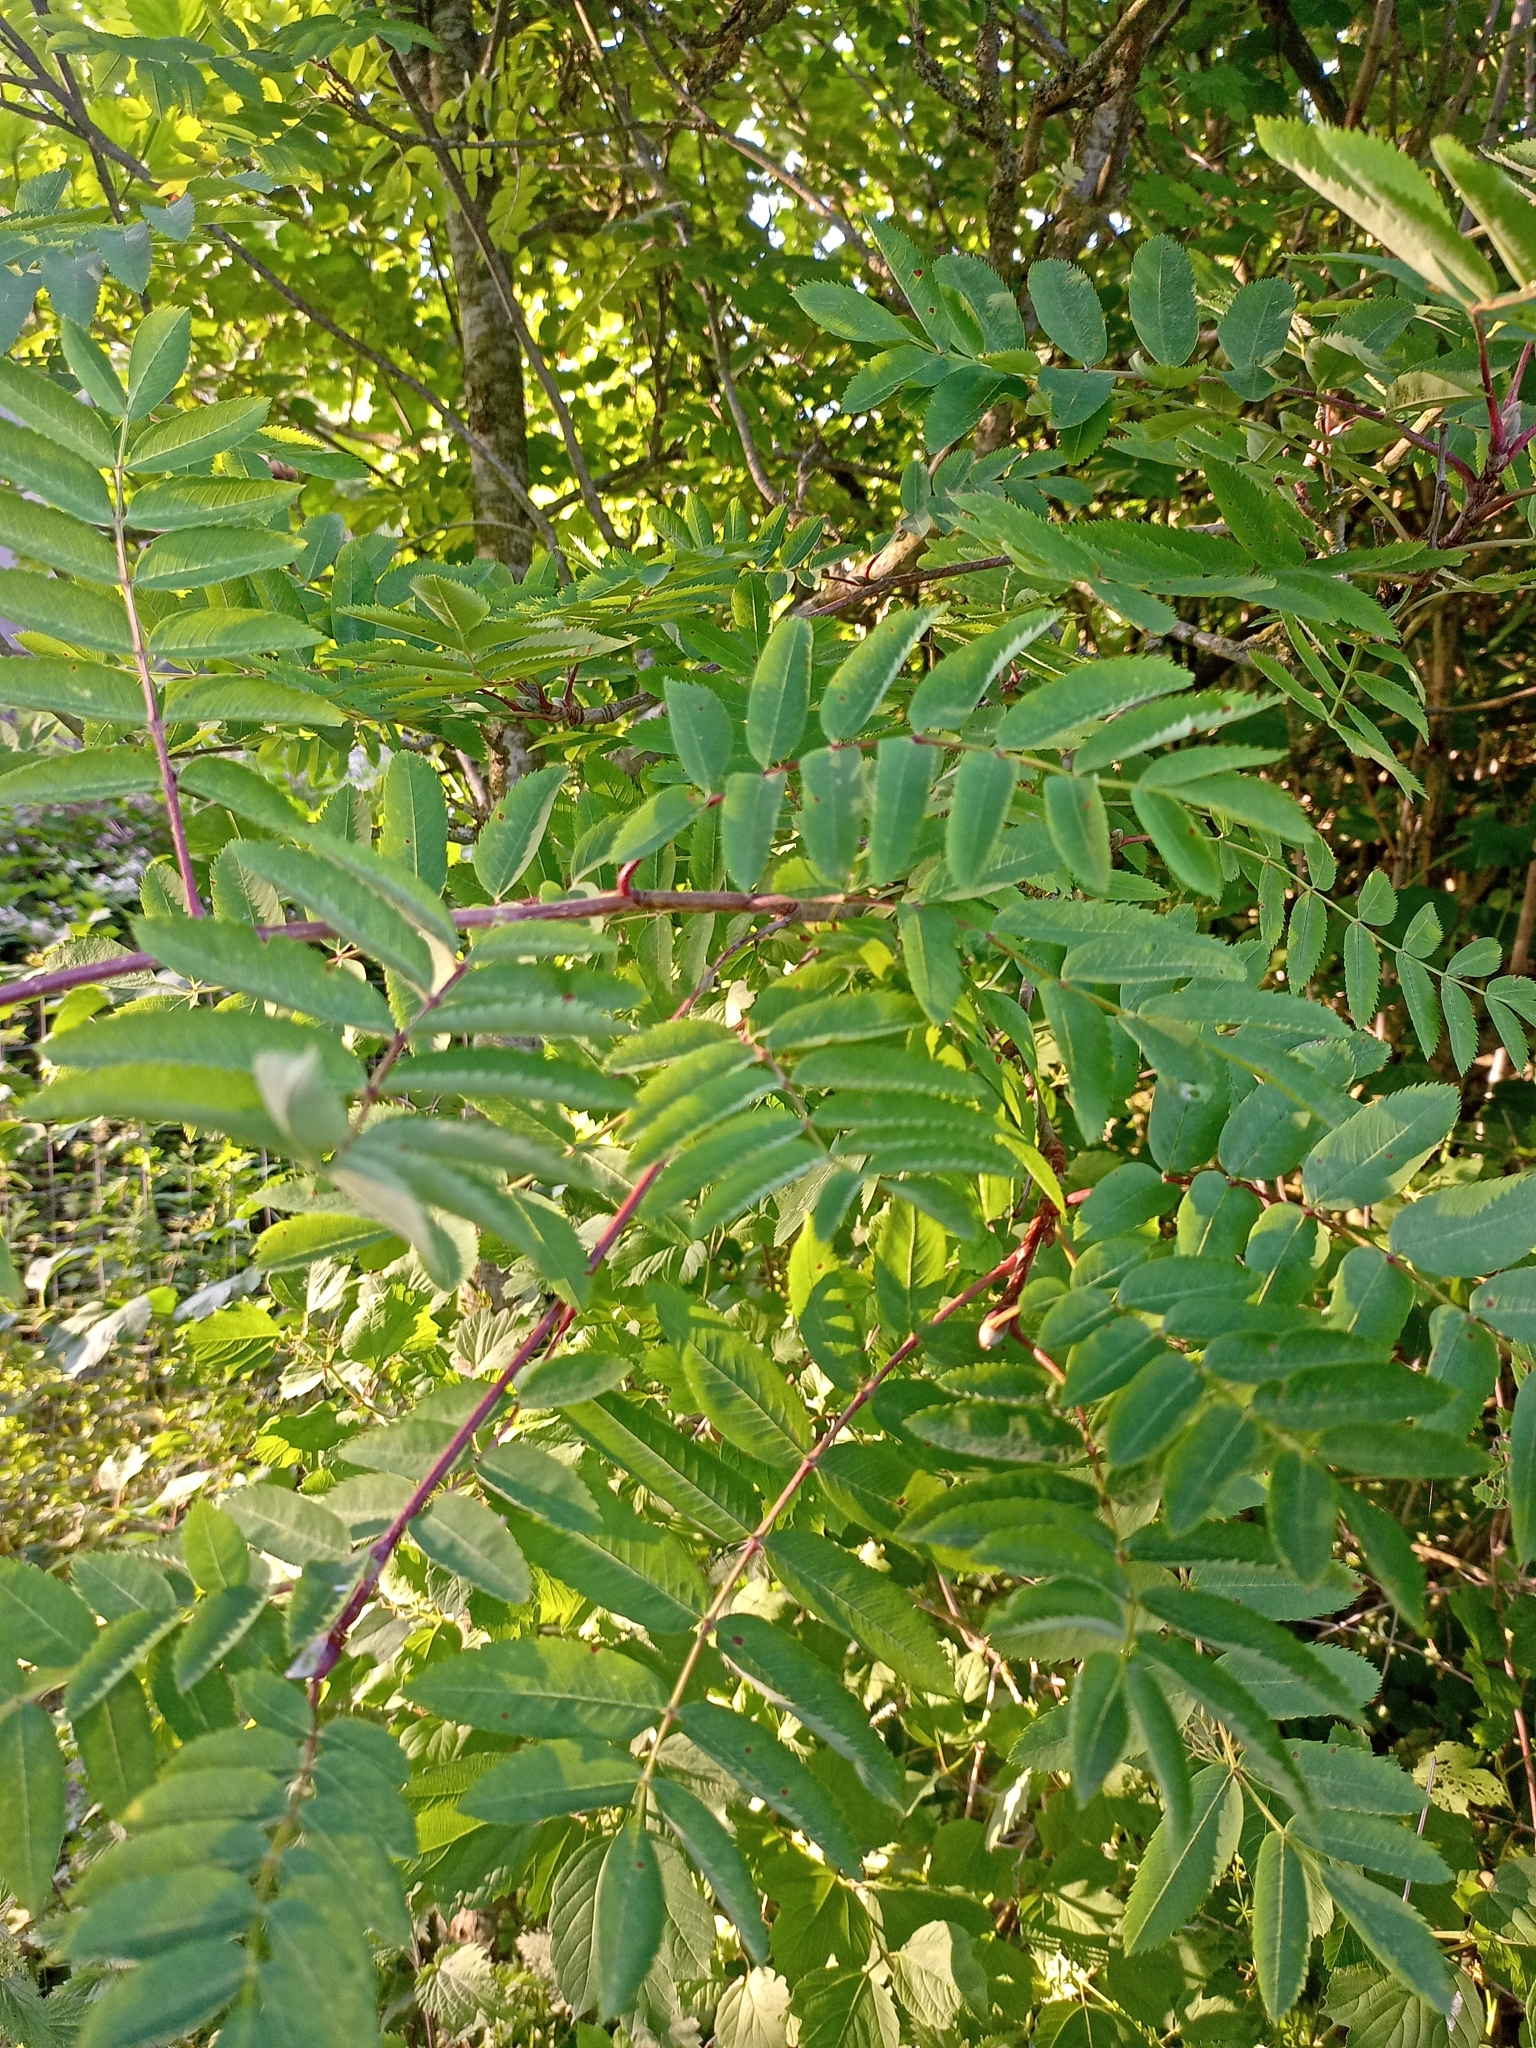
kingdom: Plantae
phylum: Tracheophyta
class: Magnoliopsida
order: Rosales
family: Rosaceae
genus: Sorbus
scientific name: Sorbus aucuparia
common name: Rowan
